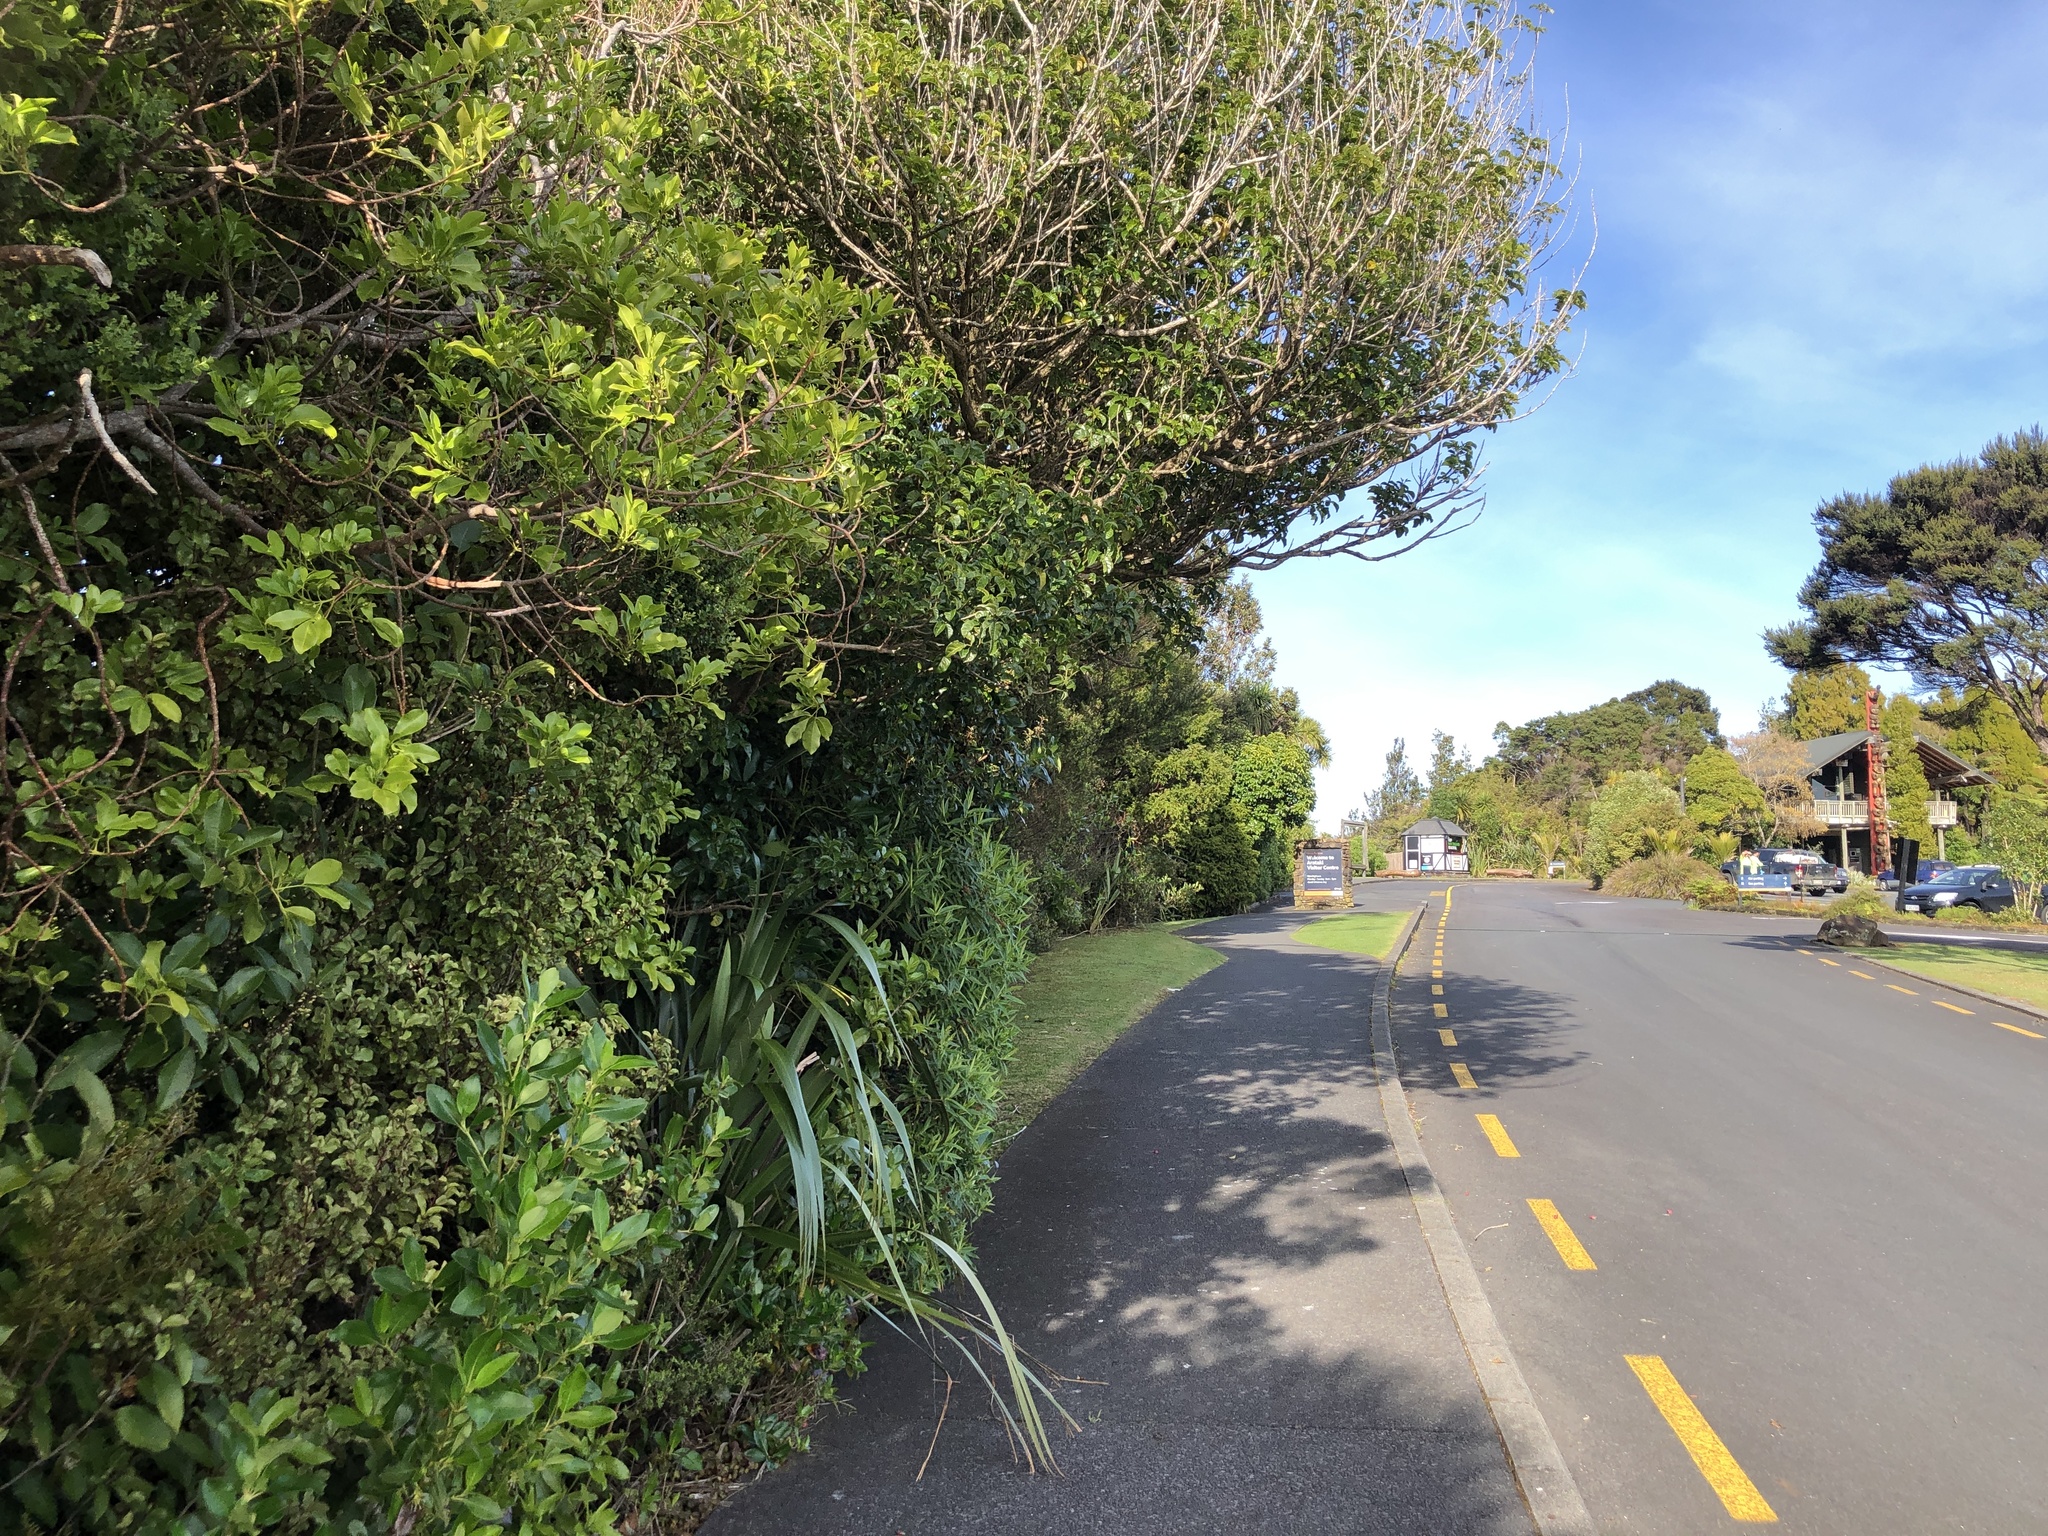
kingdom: Plantae
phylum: Tracheophyta
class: Magnoliopsida
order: Malpighiales
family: Violaceae
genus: Melicytus
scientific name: Melicytus macrophyllus
